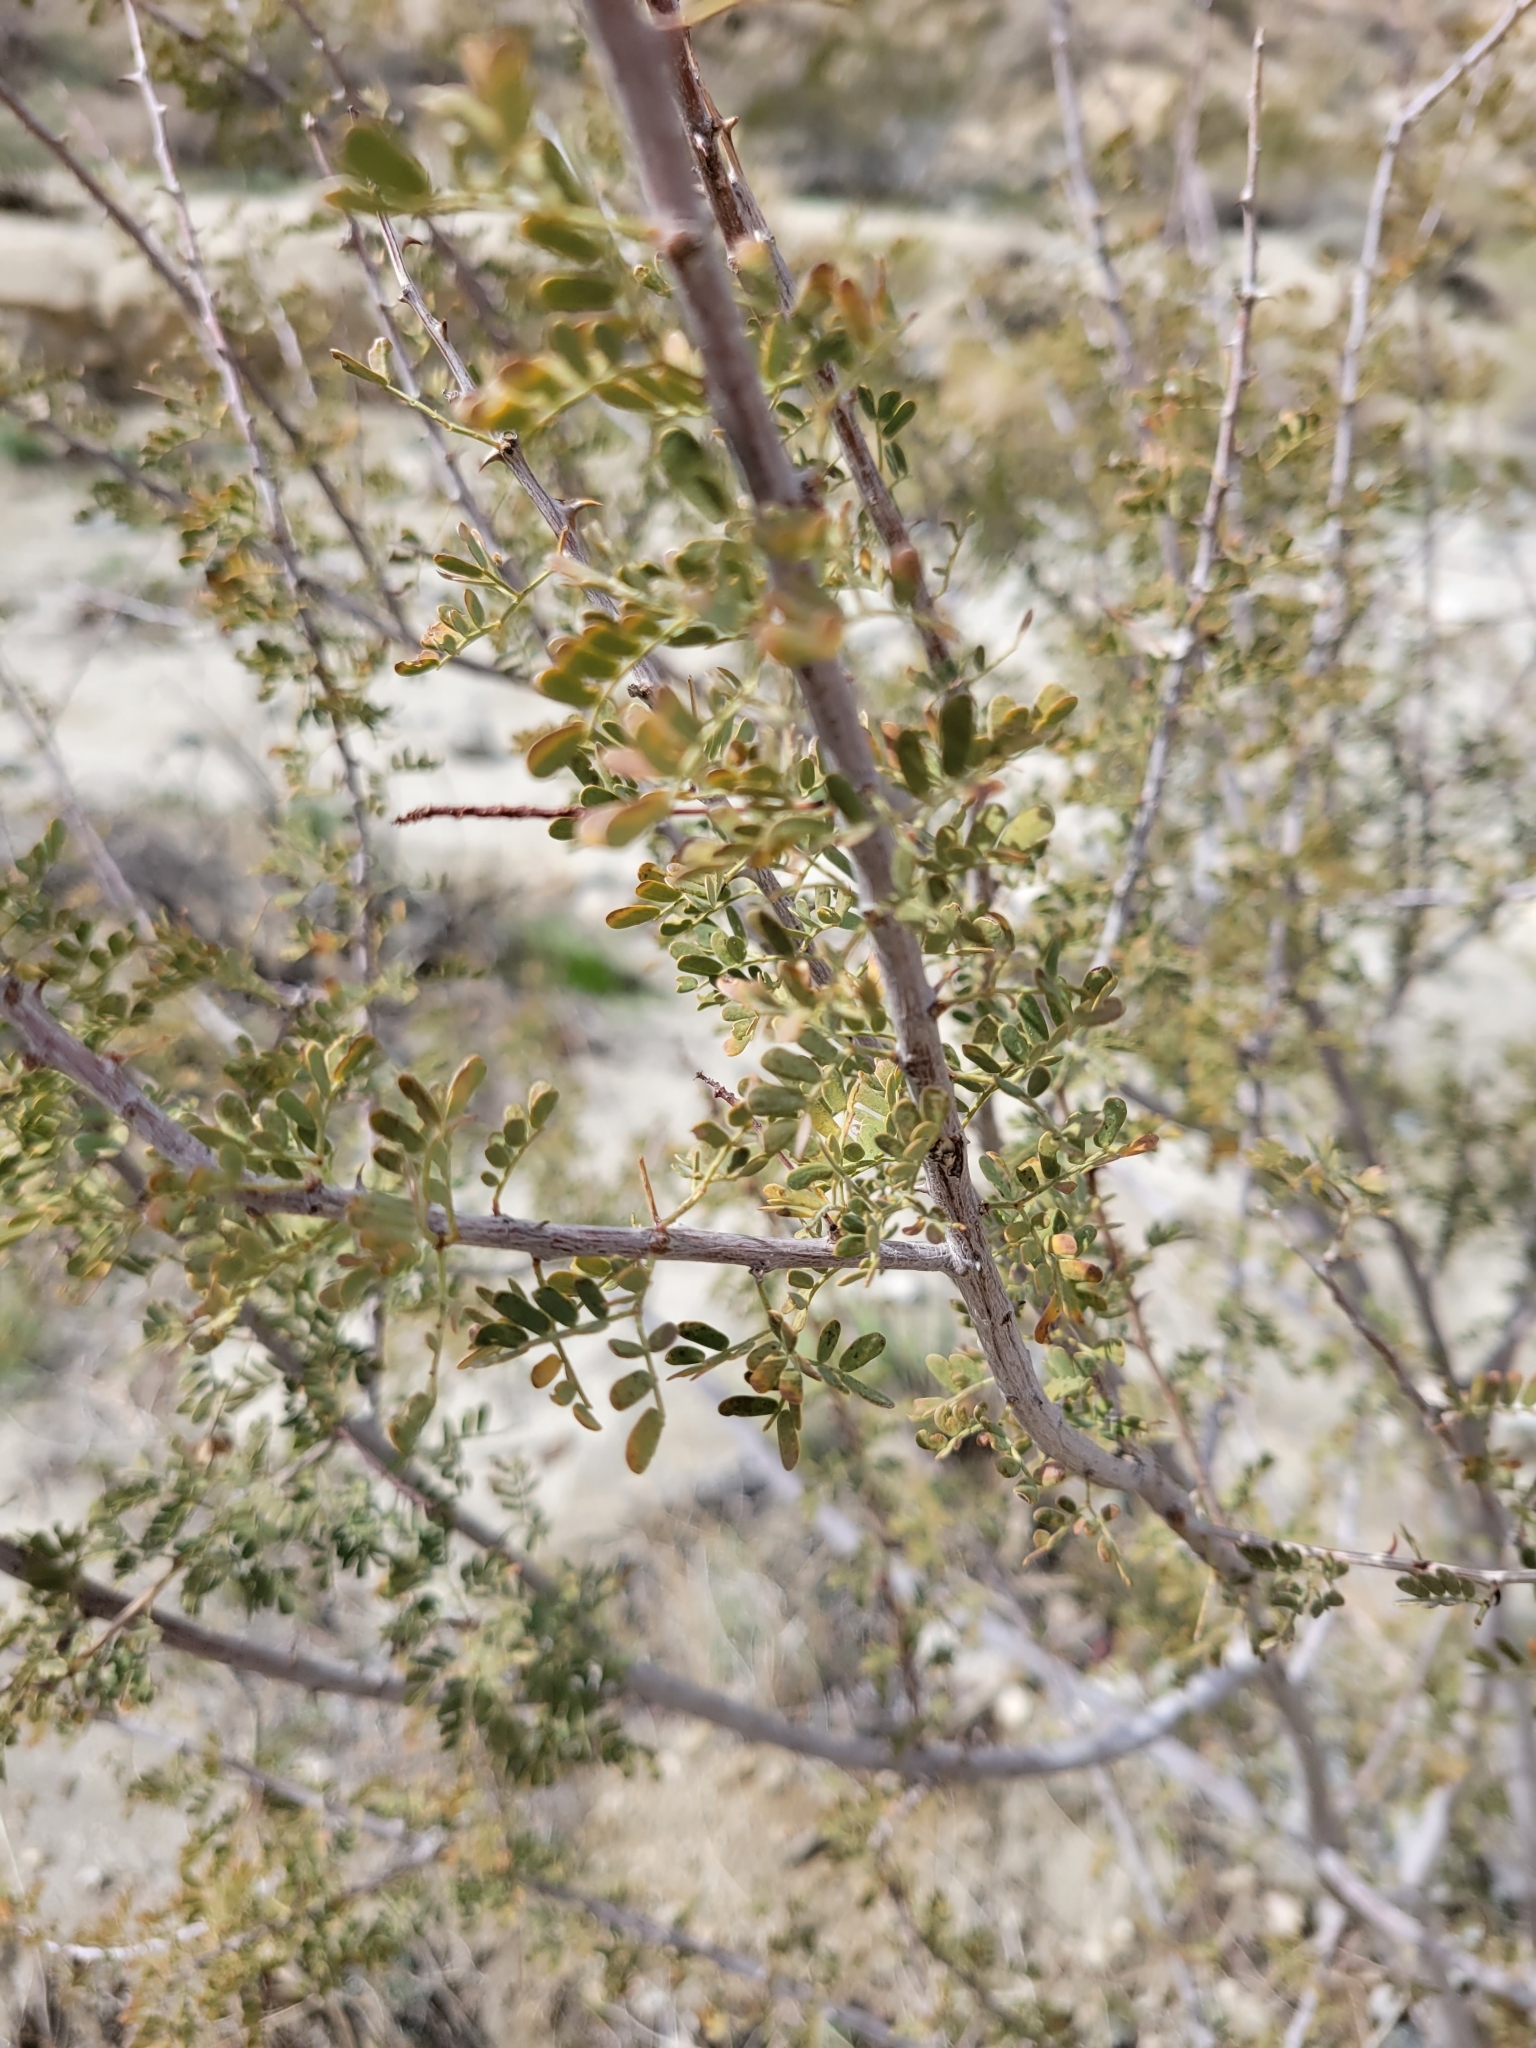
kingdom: Plantae
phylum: Tracheophyta
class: Magnoliopsida
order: Fabales
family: Fabaceae
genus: Senegalia
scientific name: Senegalia greggii
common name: Texas-mimosa
